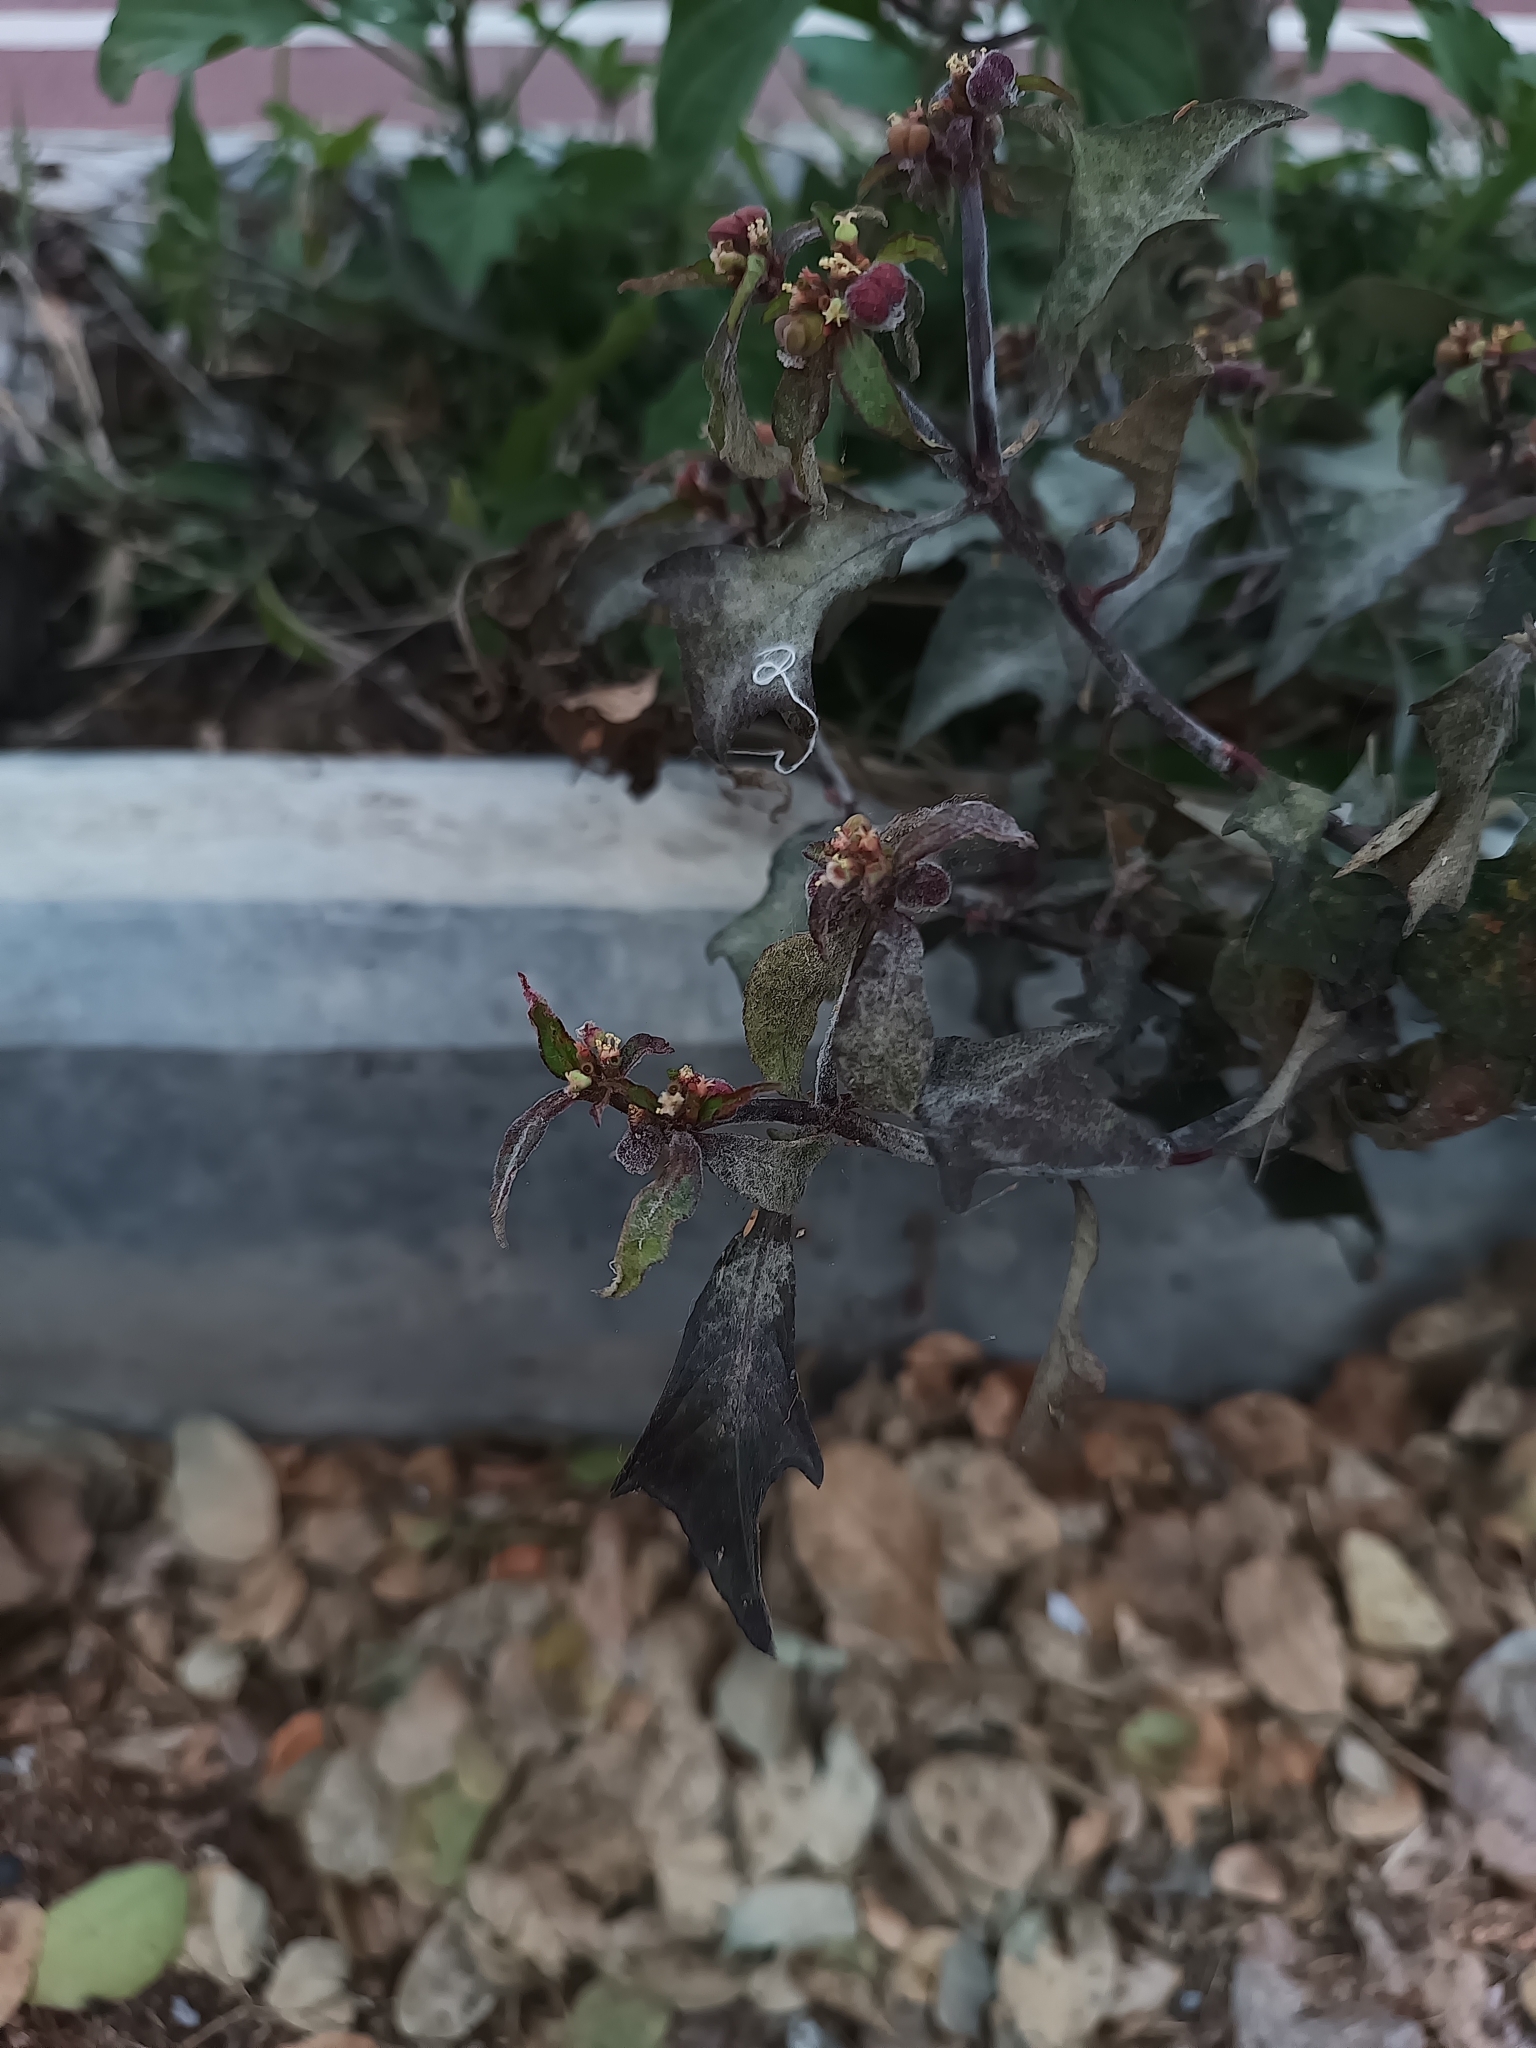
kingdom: Plantae
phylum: Tracheophyta
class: Magnoliopsida
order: Malpighiales
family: Euphorbiaceae
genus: Euphorbia
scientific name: Euphorbia heterophylla
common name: Mexican fireplant
